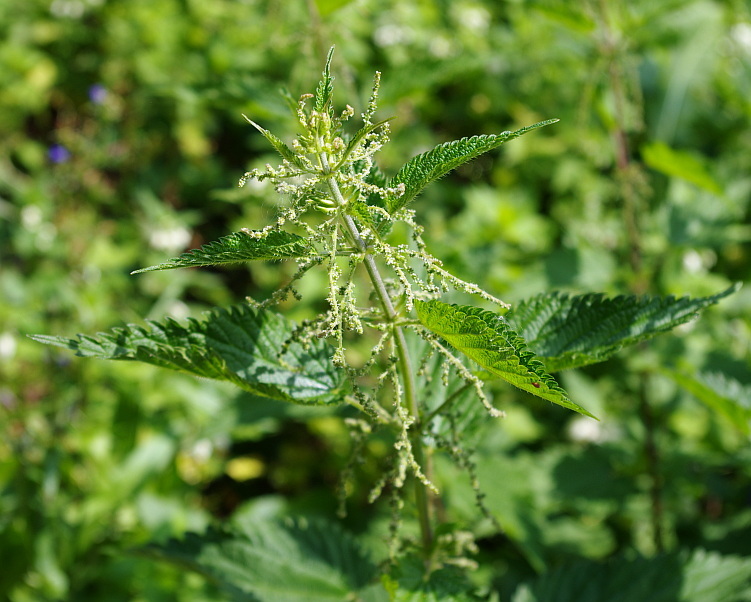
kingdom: Plantae
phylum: Tracheophyta
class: Magnoliopsida
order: Rosales
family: Urticaceae
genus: Urtica
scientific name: Urtica dioica
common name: Common nettle
